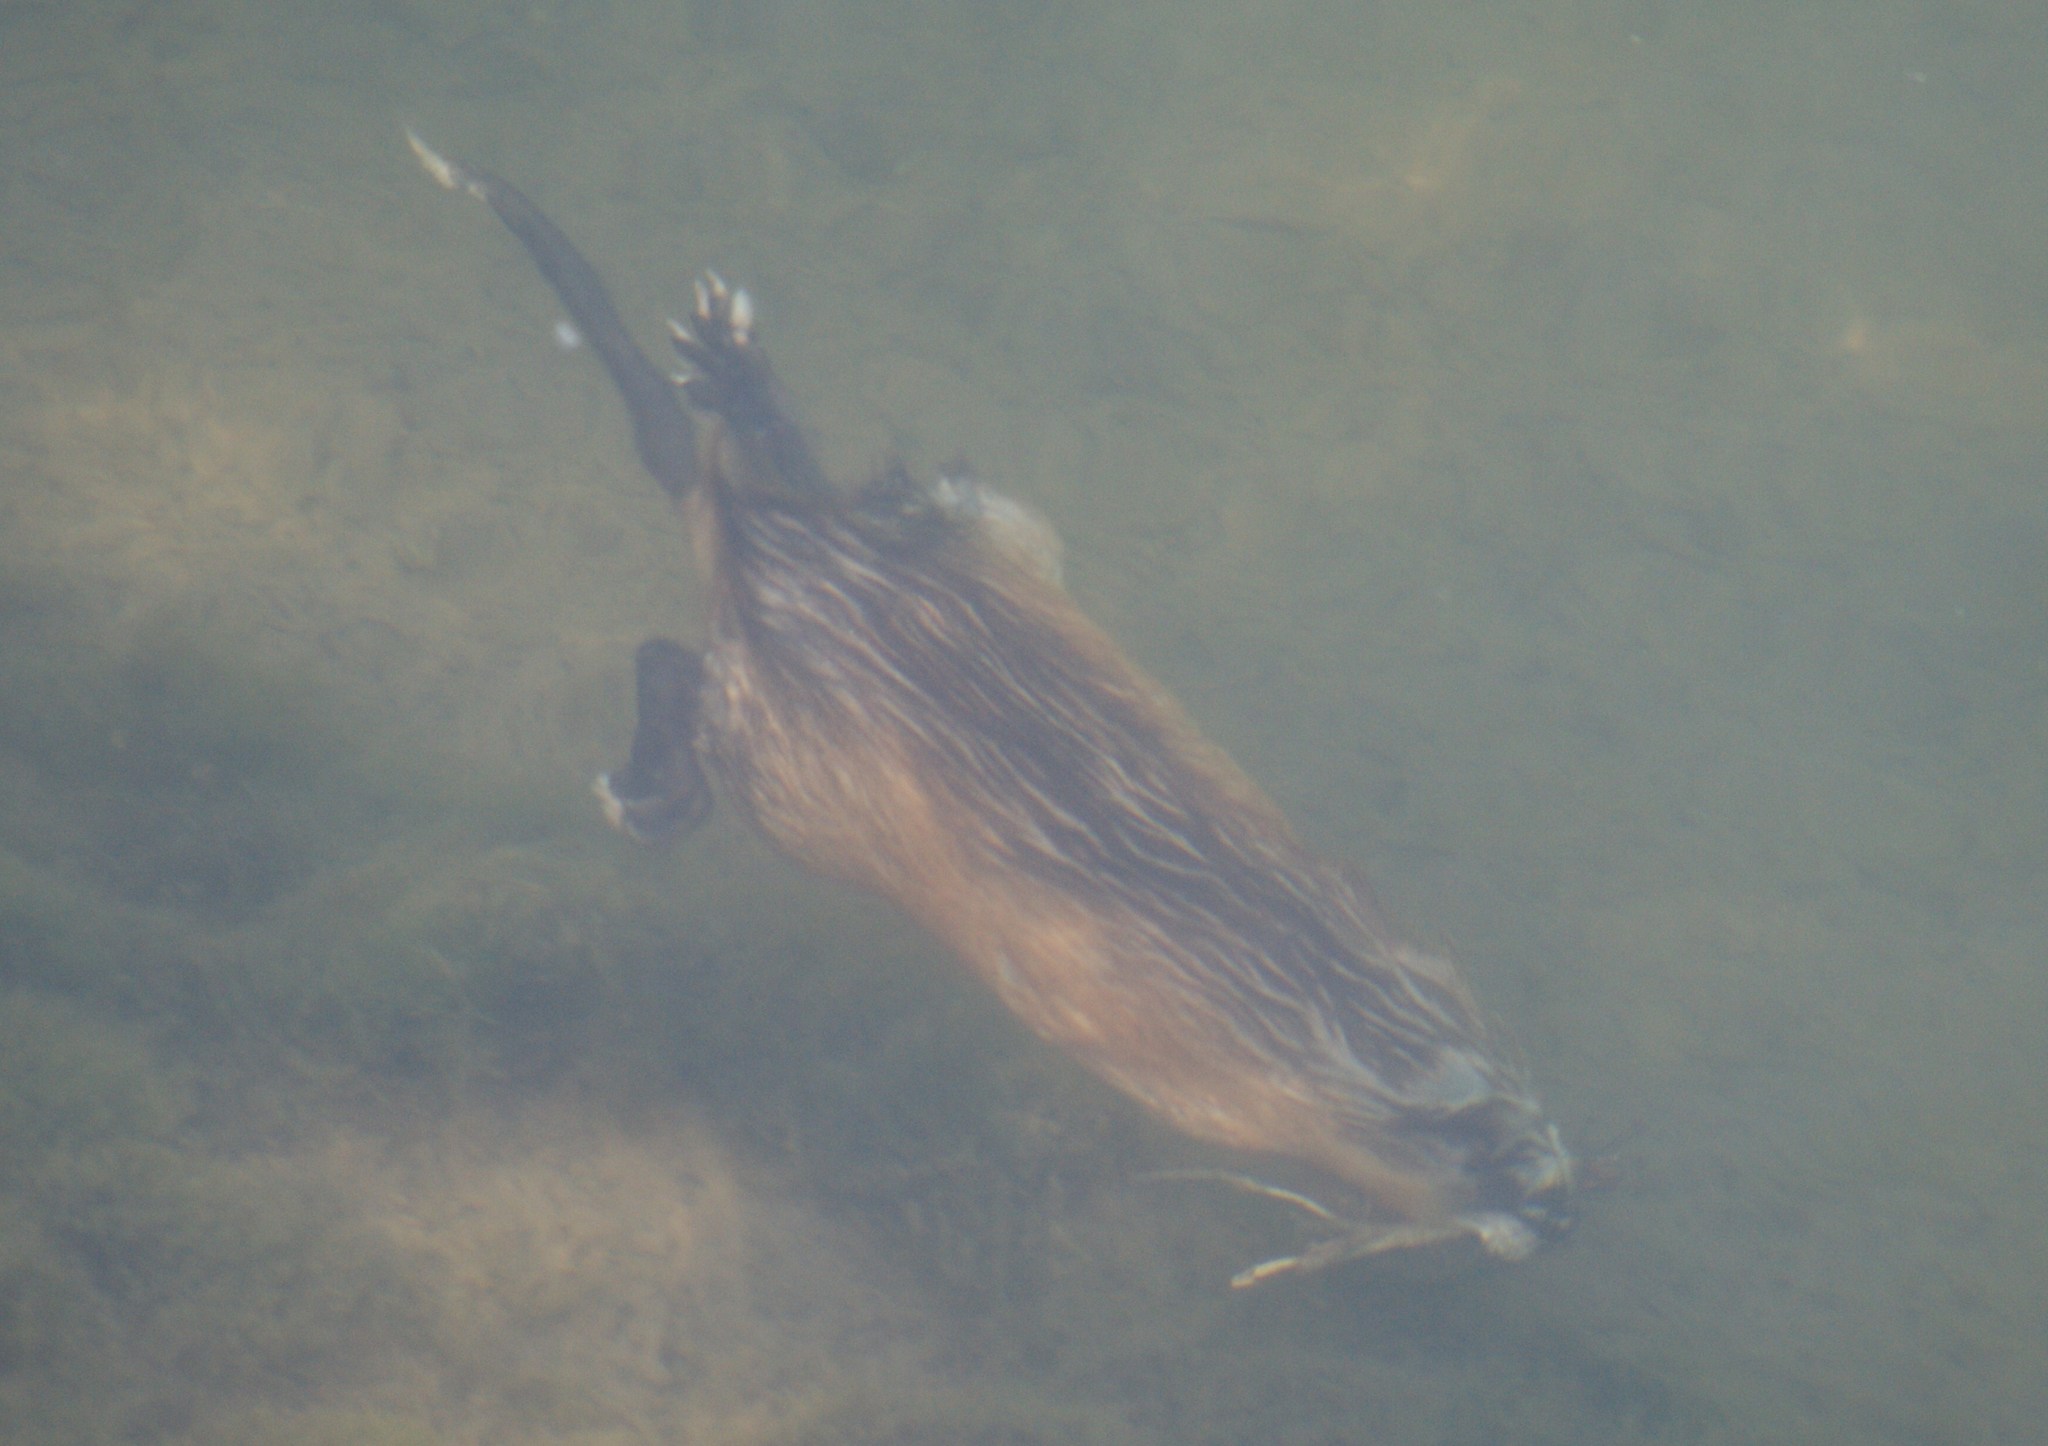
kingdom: Animalia
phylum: Chordata
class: Mammalia
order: Rodentia
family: Cricetidae
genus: Ondatra
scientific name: Ondatra zibethicus
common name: Muskrat
